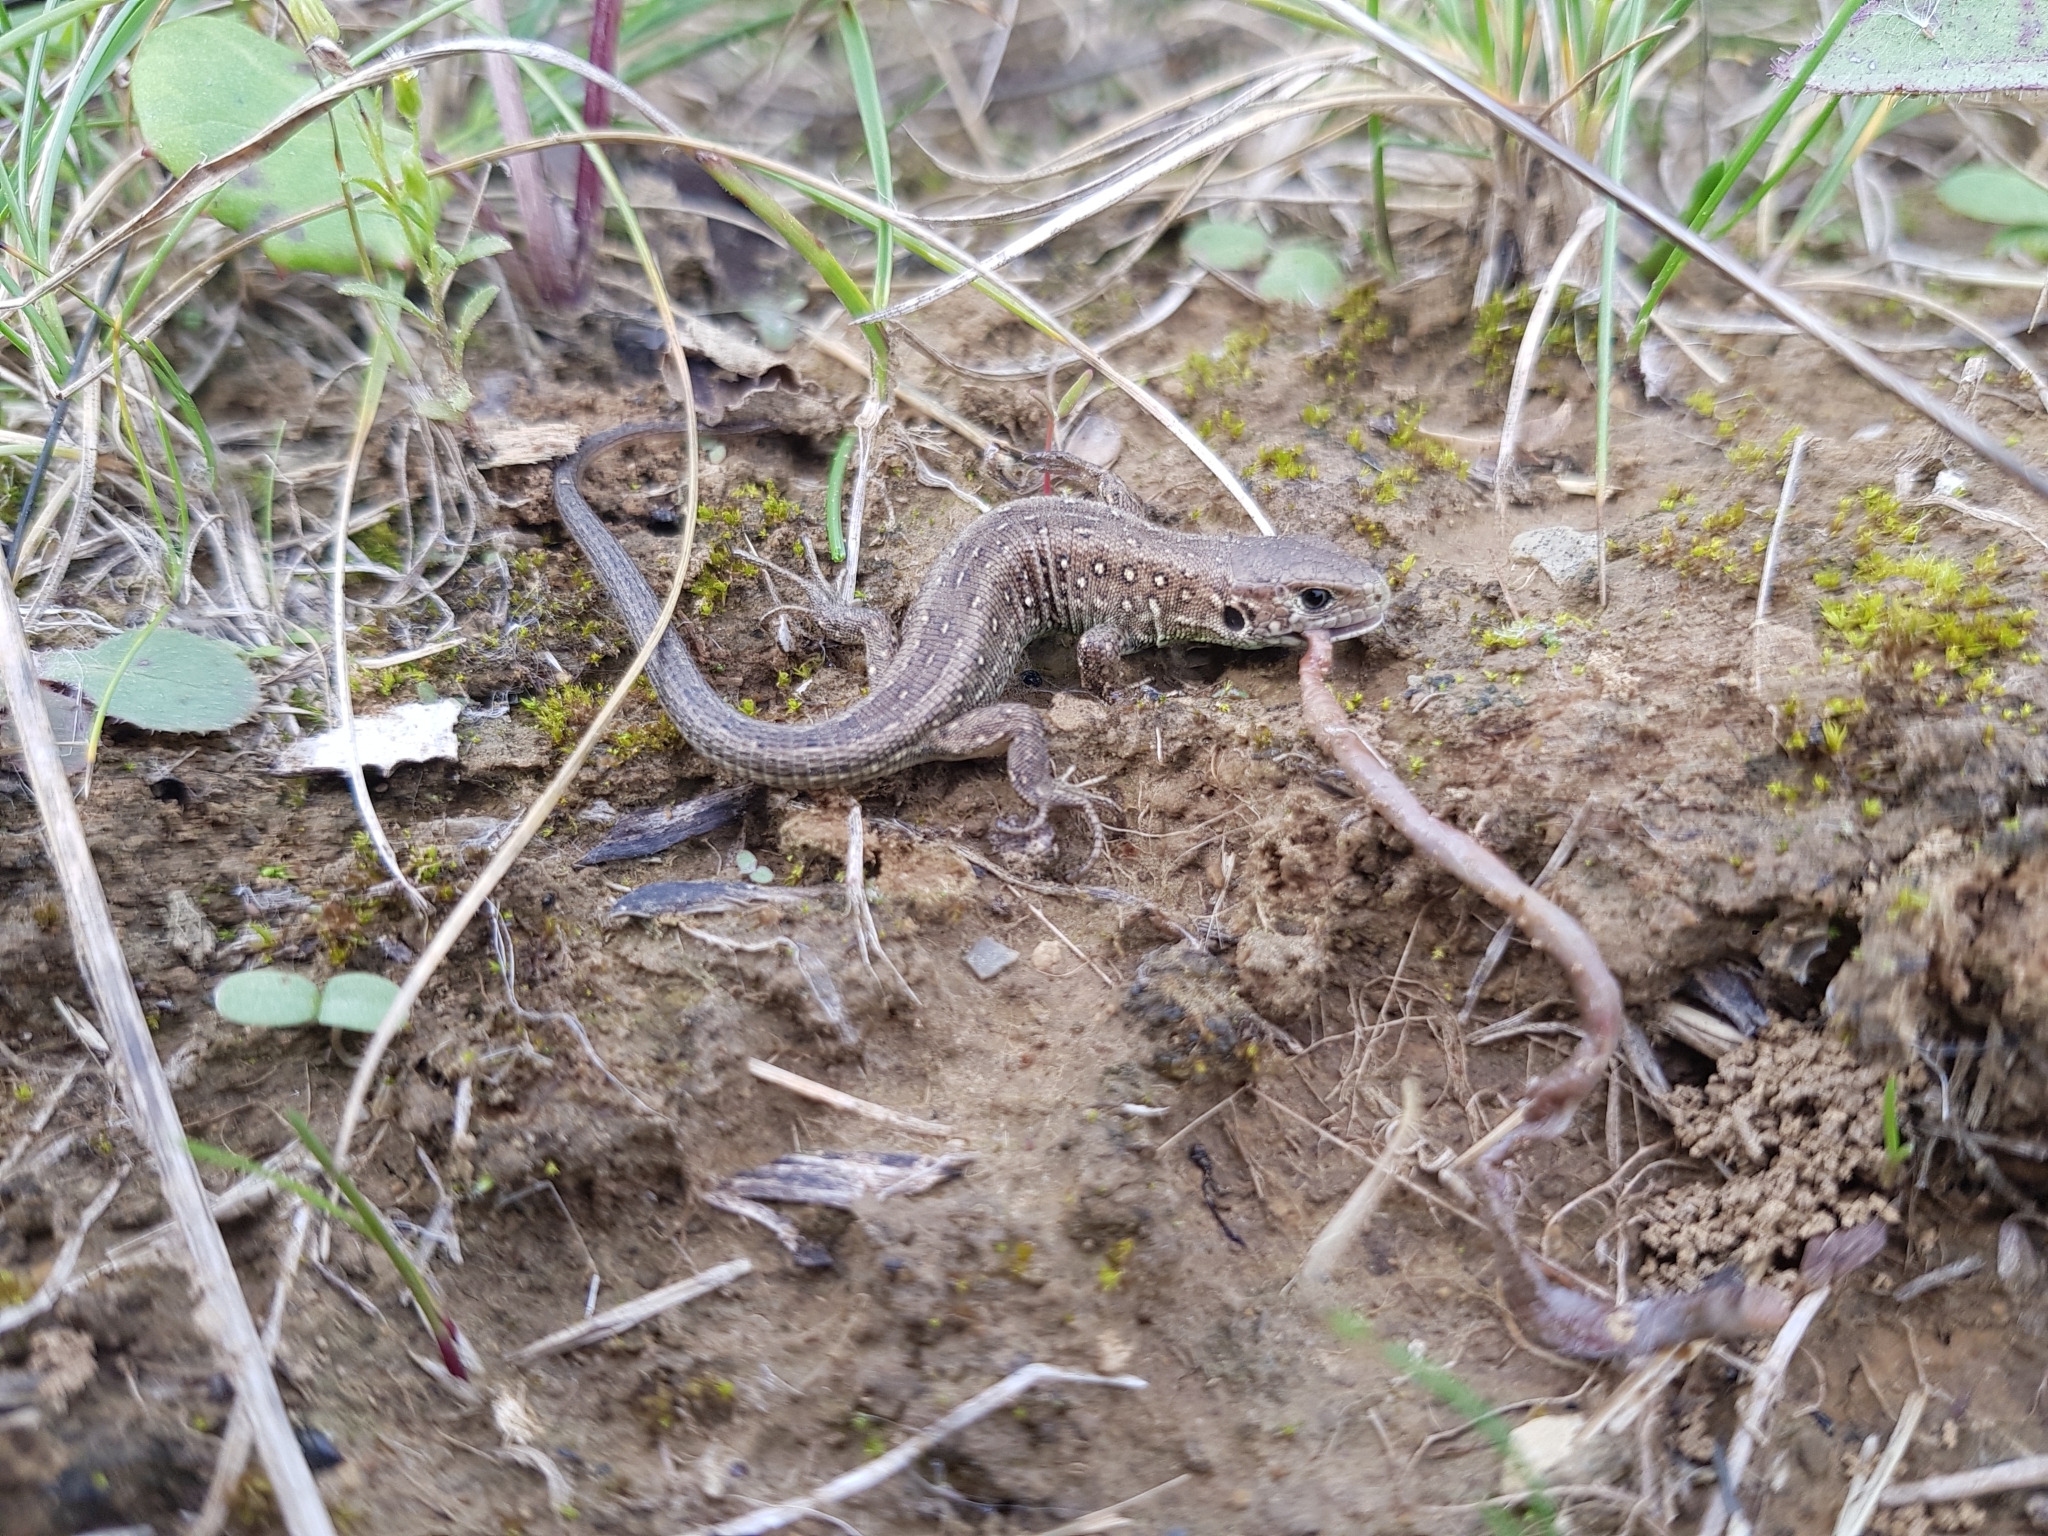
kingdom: Animalia
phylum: Chordata
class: Squamata
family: Lacertidae
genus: Lacerta
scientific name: Lacerta agilis
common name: Sand lizard
